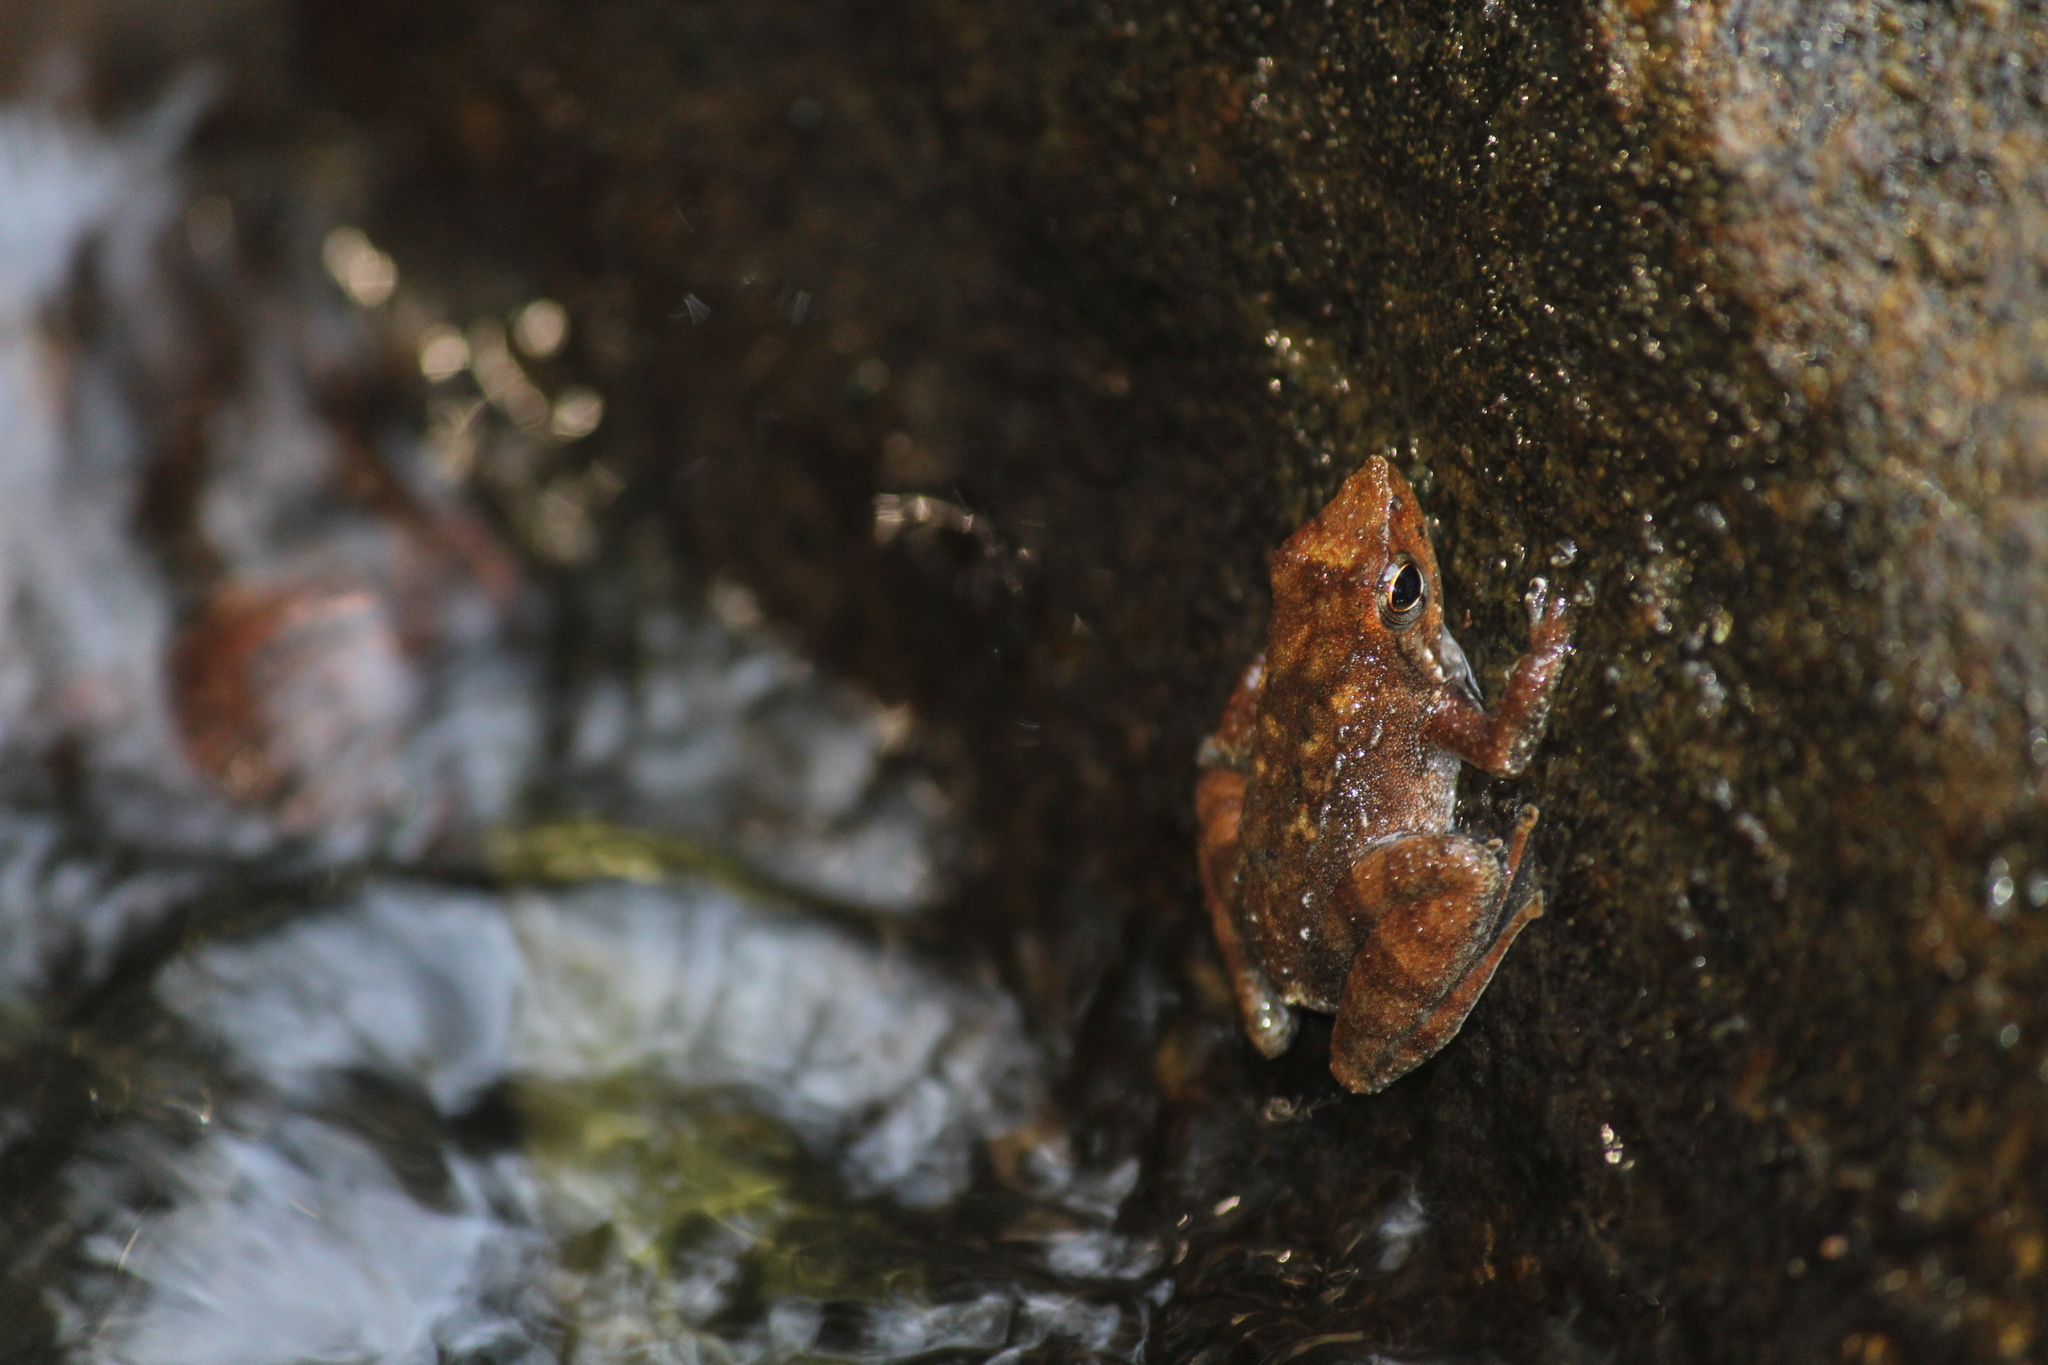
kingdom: Animalia
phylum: Chordata
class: Amphibia
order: Anura
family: Micrixalidae
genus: Micrixalus
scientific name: Micrixalus kottigeharensis
